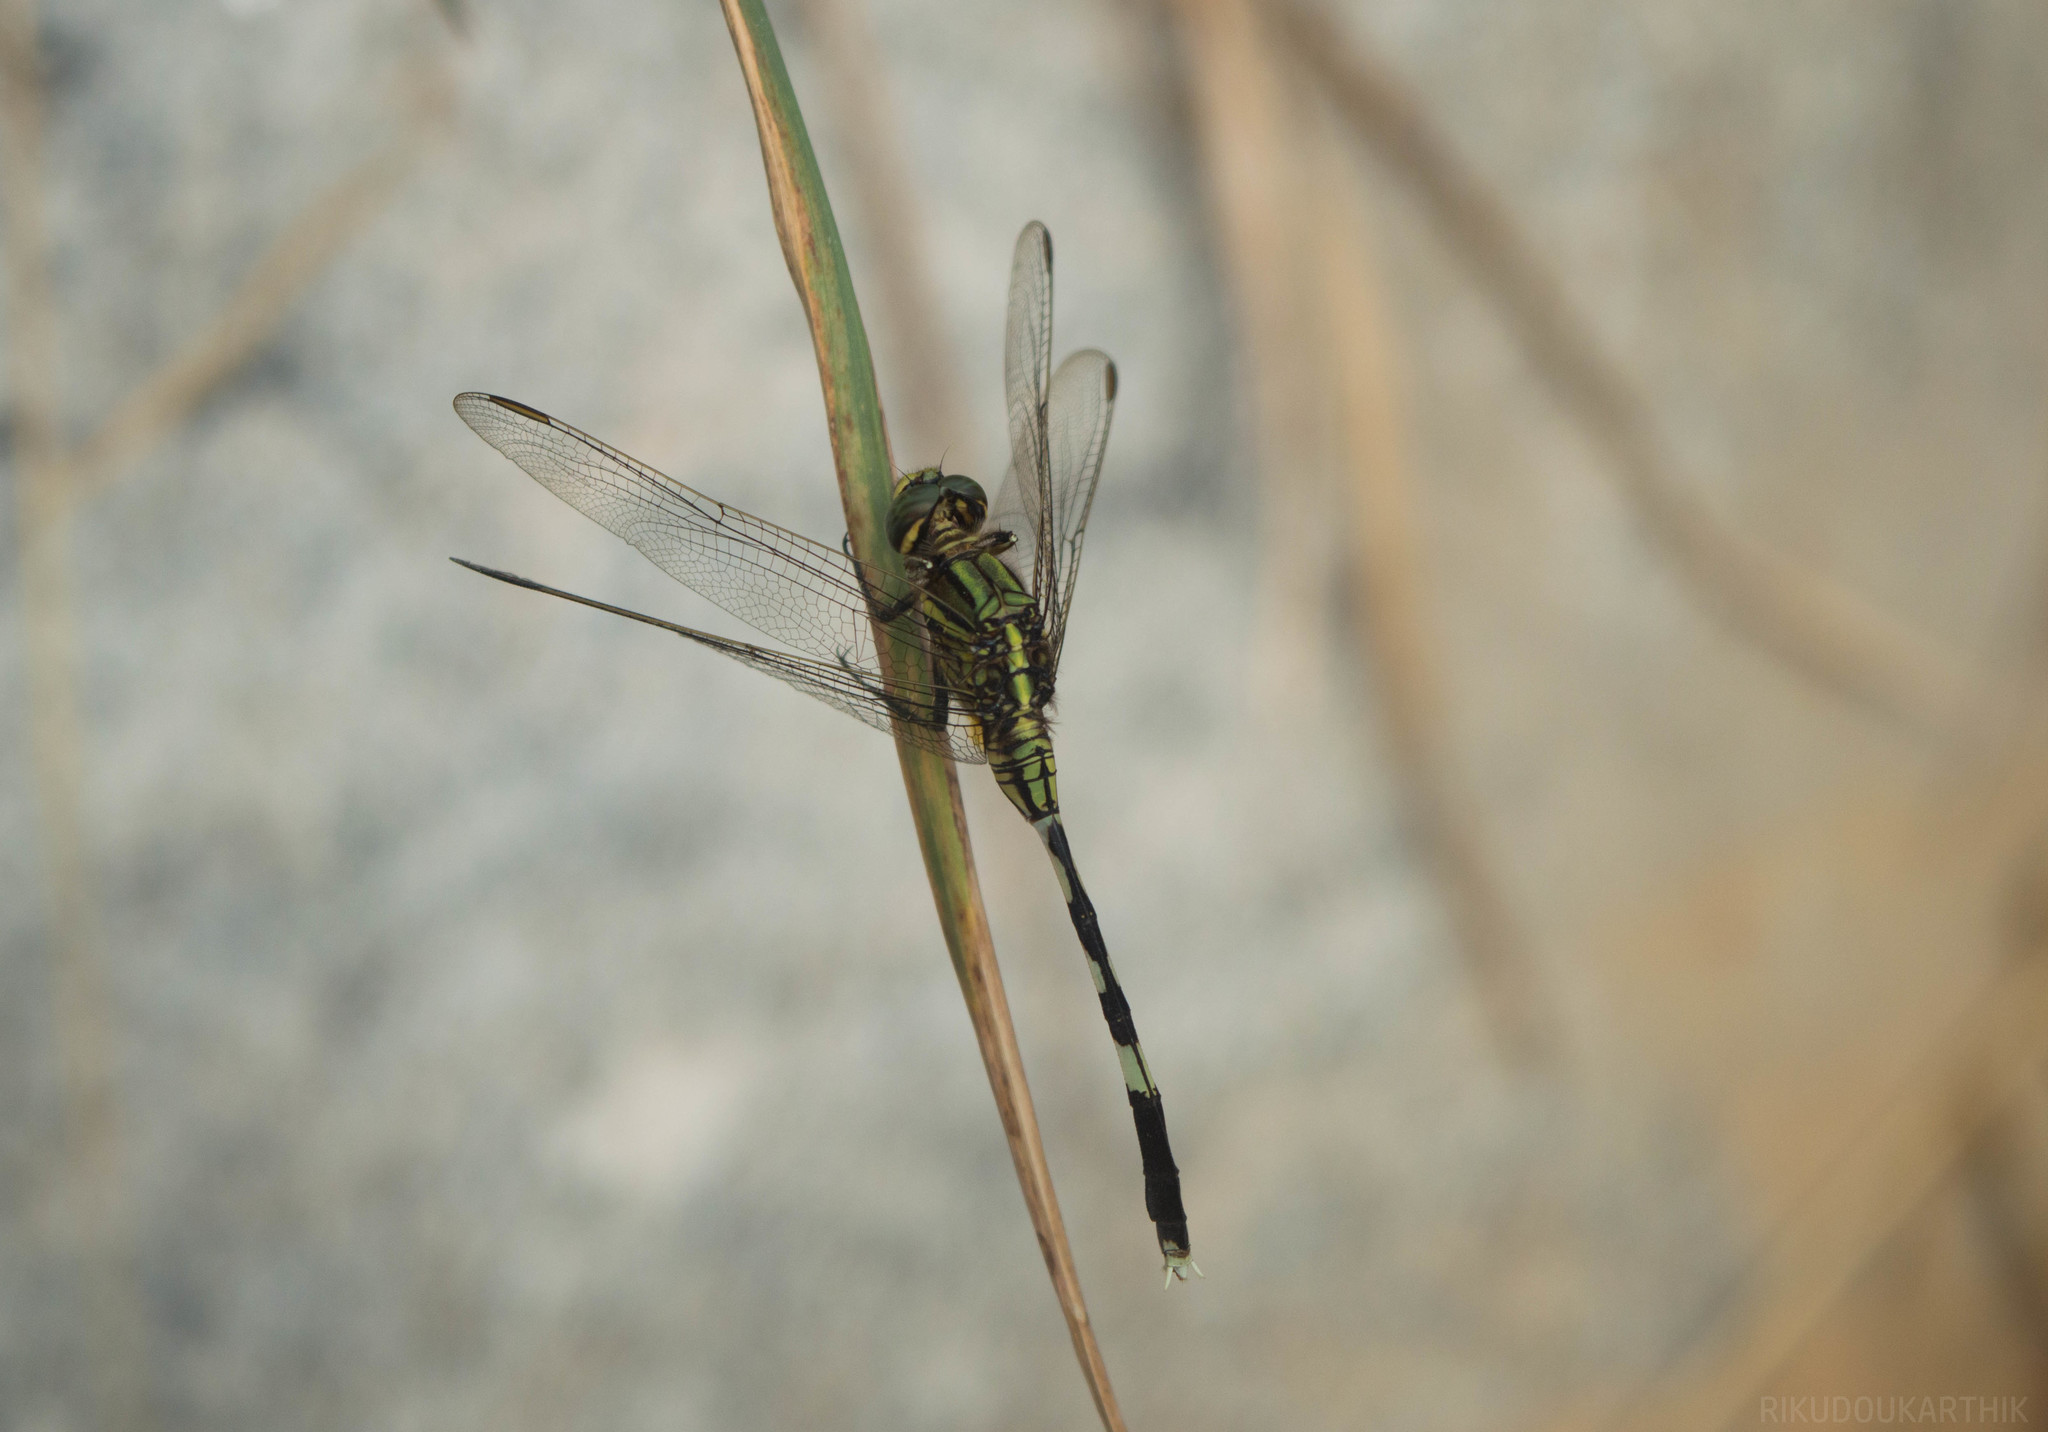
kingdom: Animalia
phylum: Arthropoda
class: Insecta
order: Odonata
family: Libellulidae
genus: Orthetrum
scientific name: Orthetrum sabina
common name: Slender skimmer
